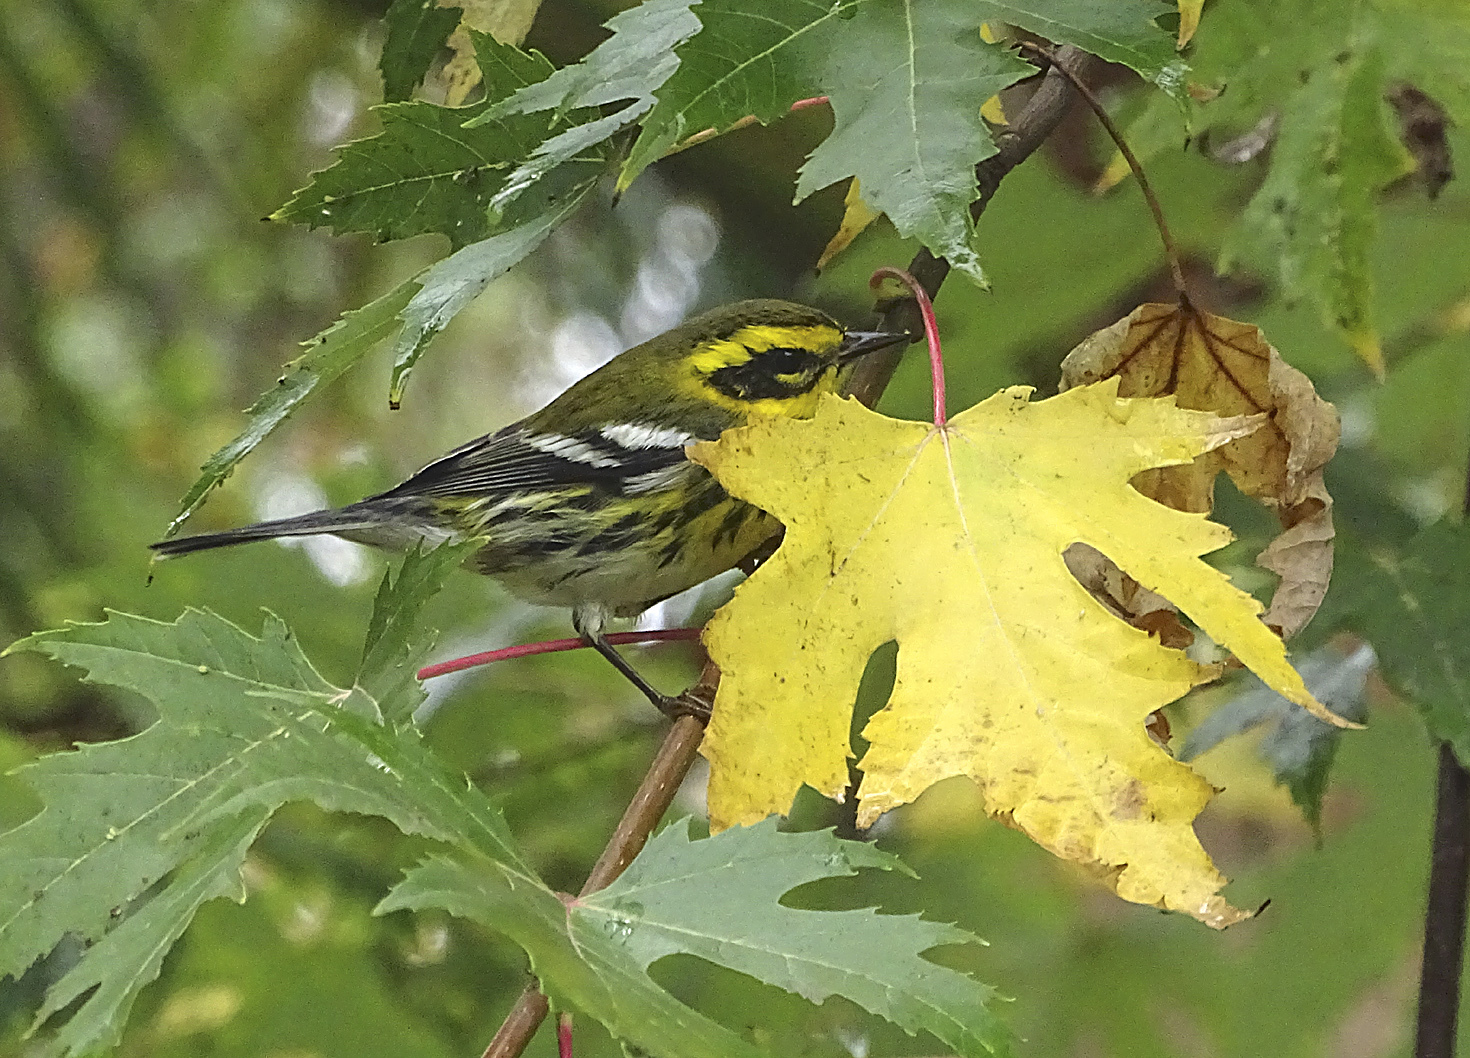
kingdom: Animalia
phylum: Chordata
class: Aves
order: Passeriformes
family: Parulidae
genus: Setophaga
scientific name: Setophaga townsendi
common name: Townsend's warbler
